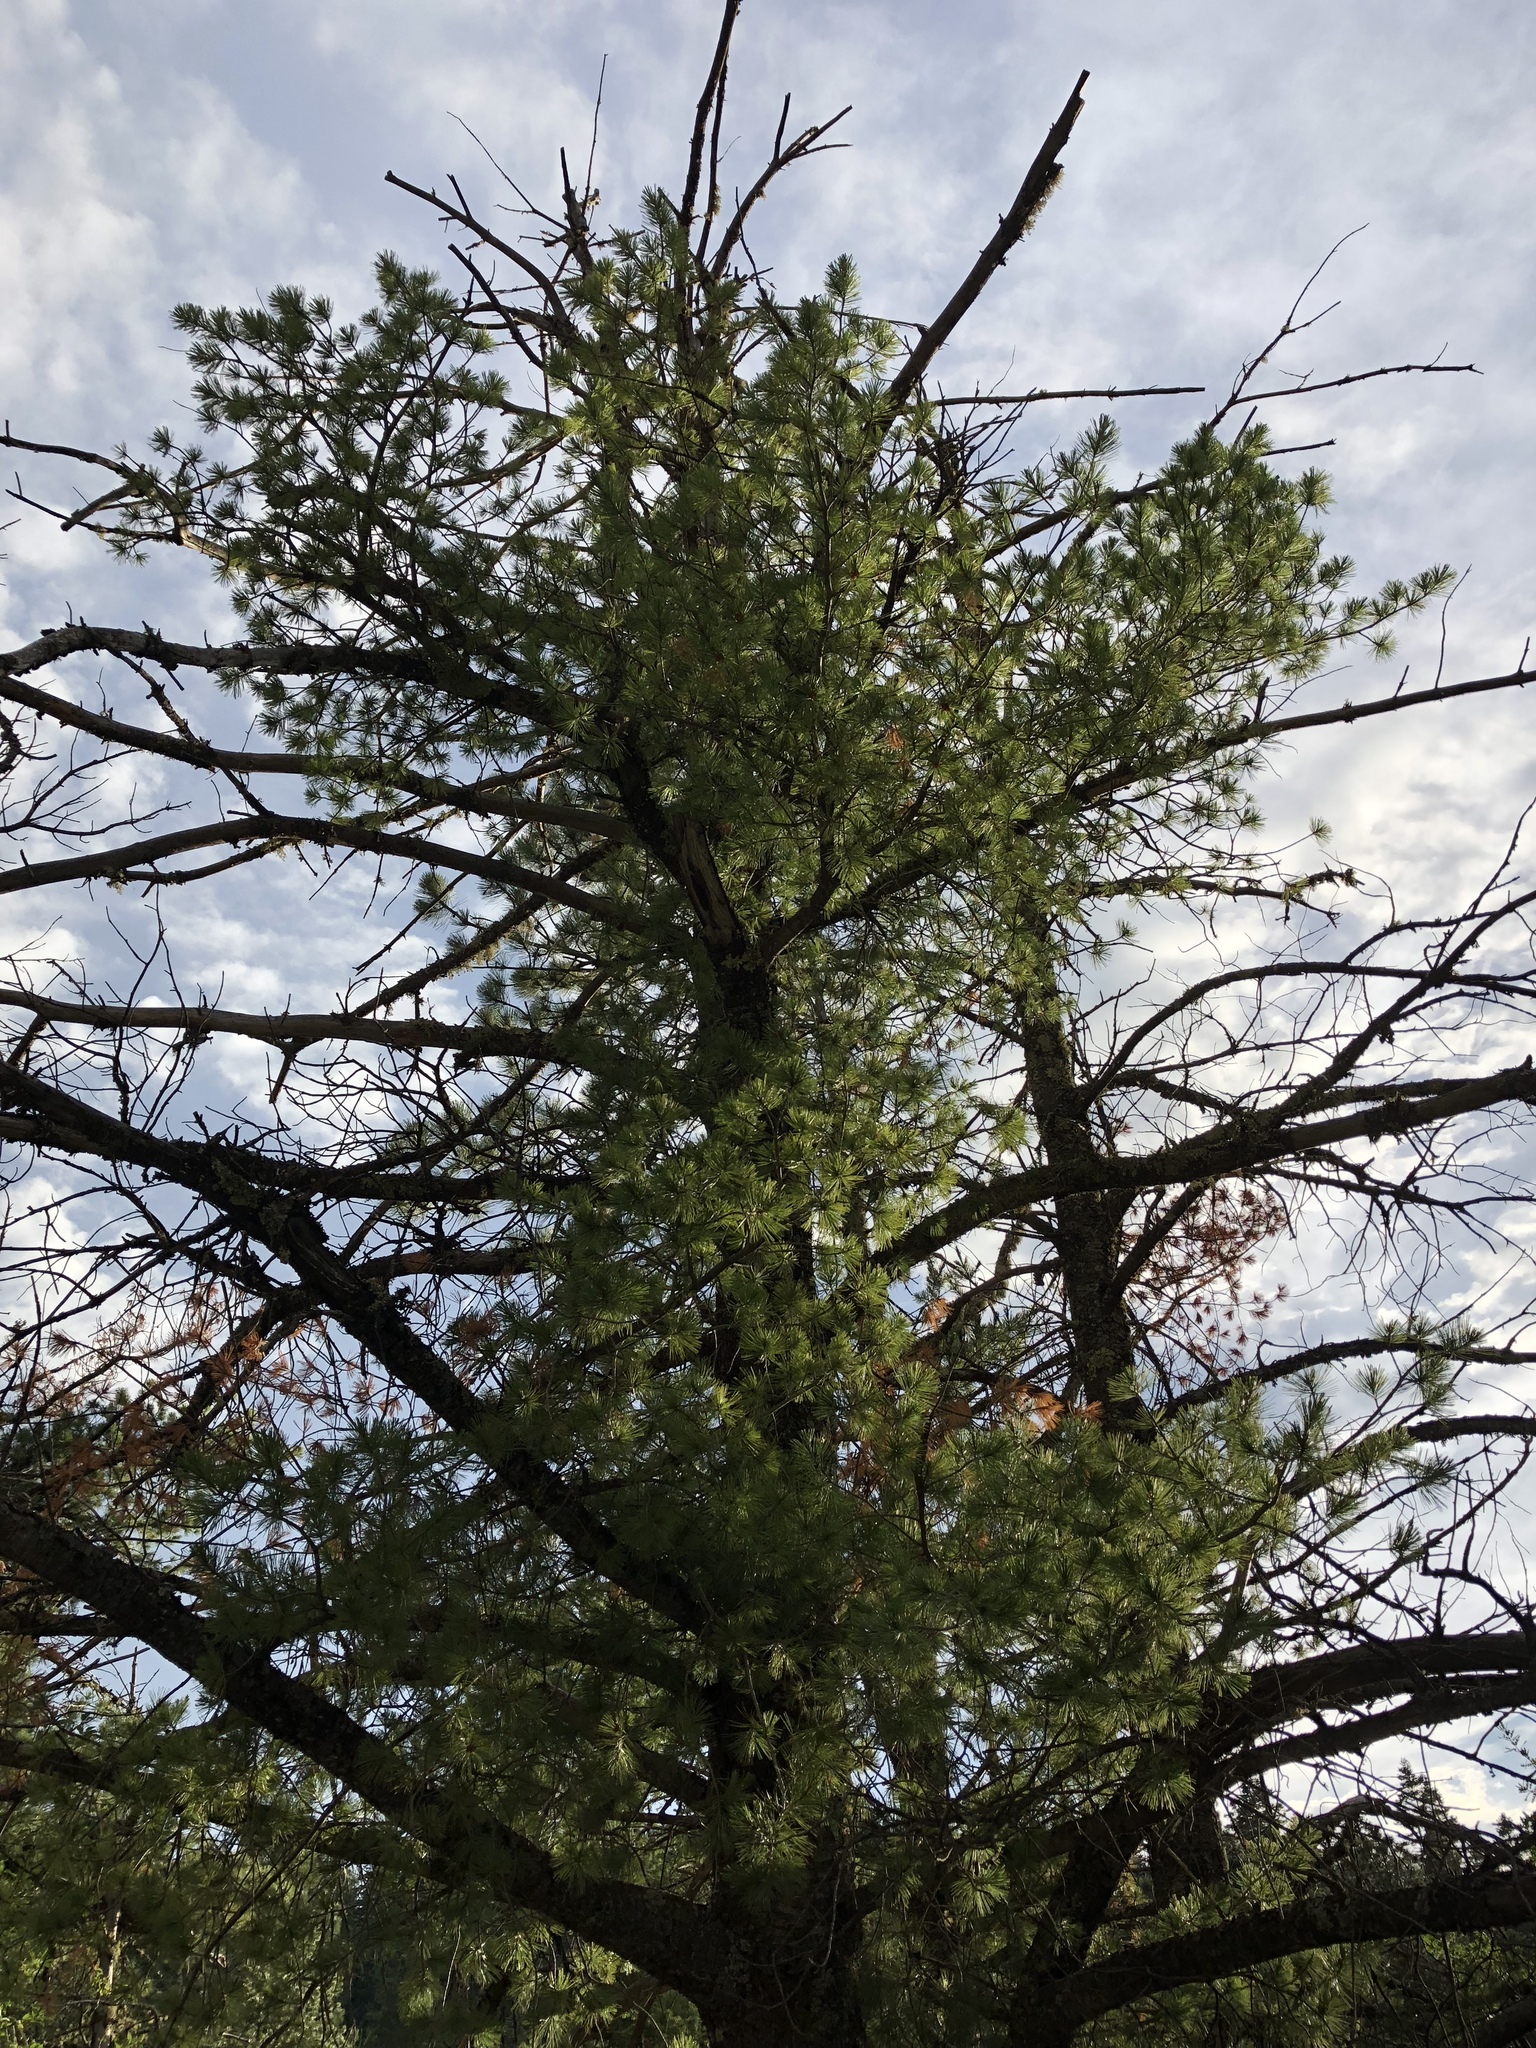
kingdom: Plantae
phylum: Tracheophyta
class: Pinopsida
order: Pinales
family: Pinaceae
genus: Pinus
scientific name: Pinus ponderosa
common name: Western yellow-pine
